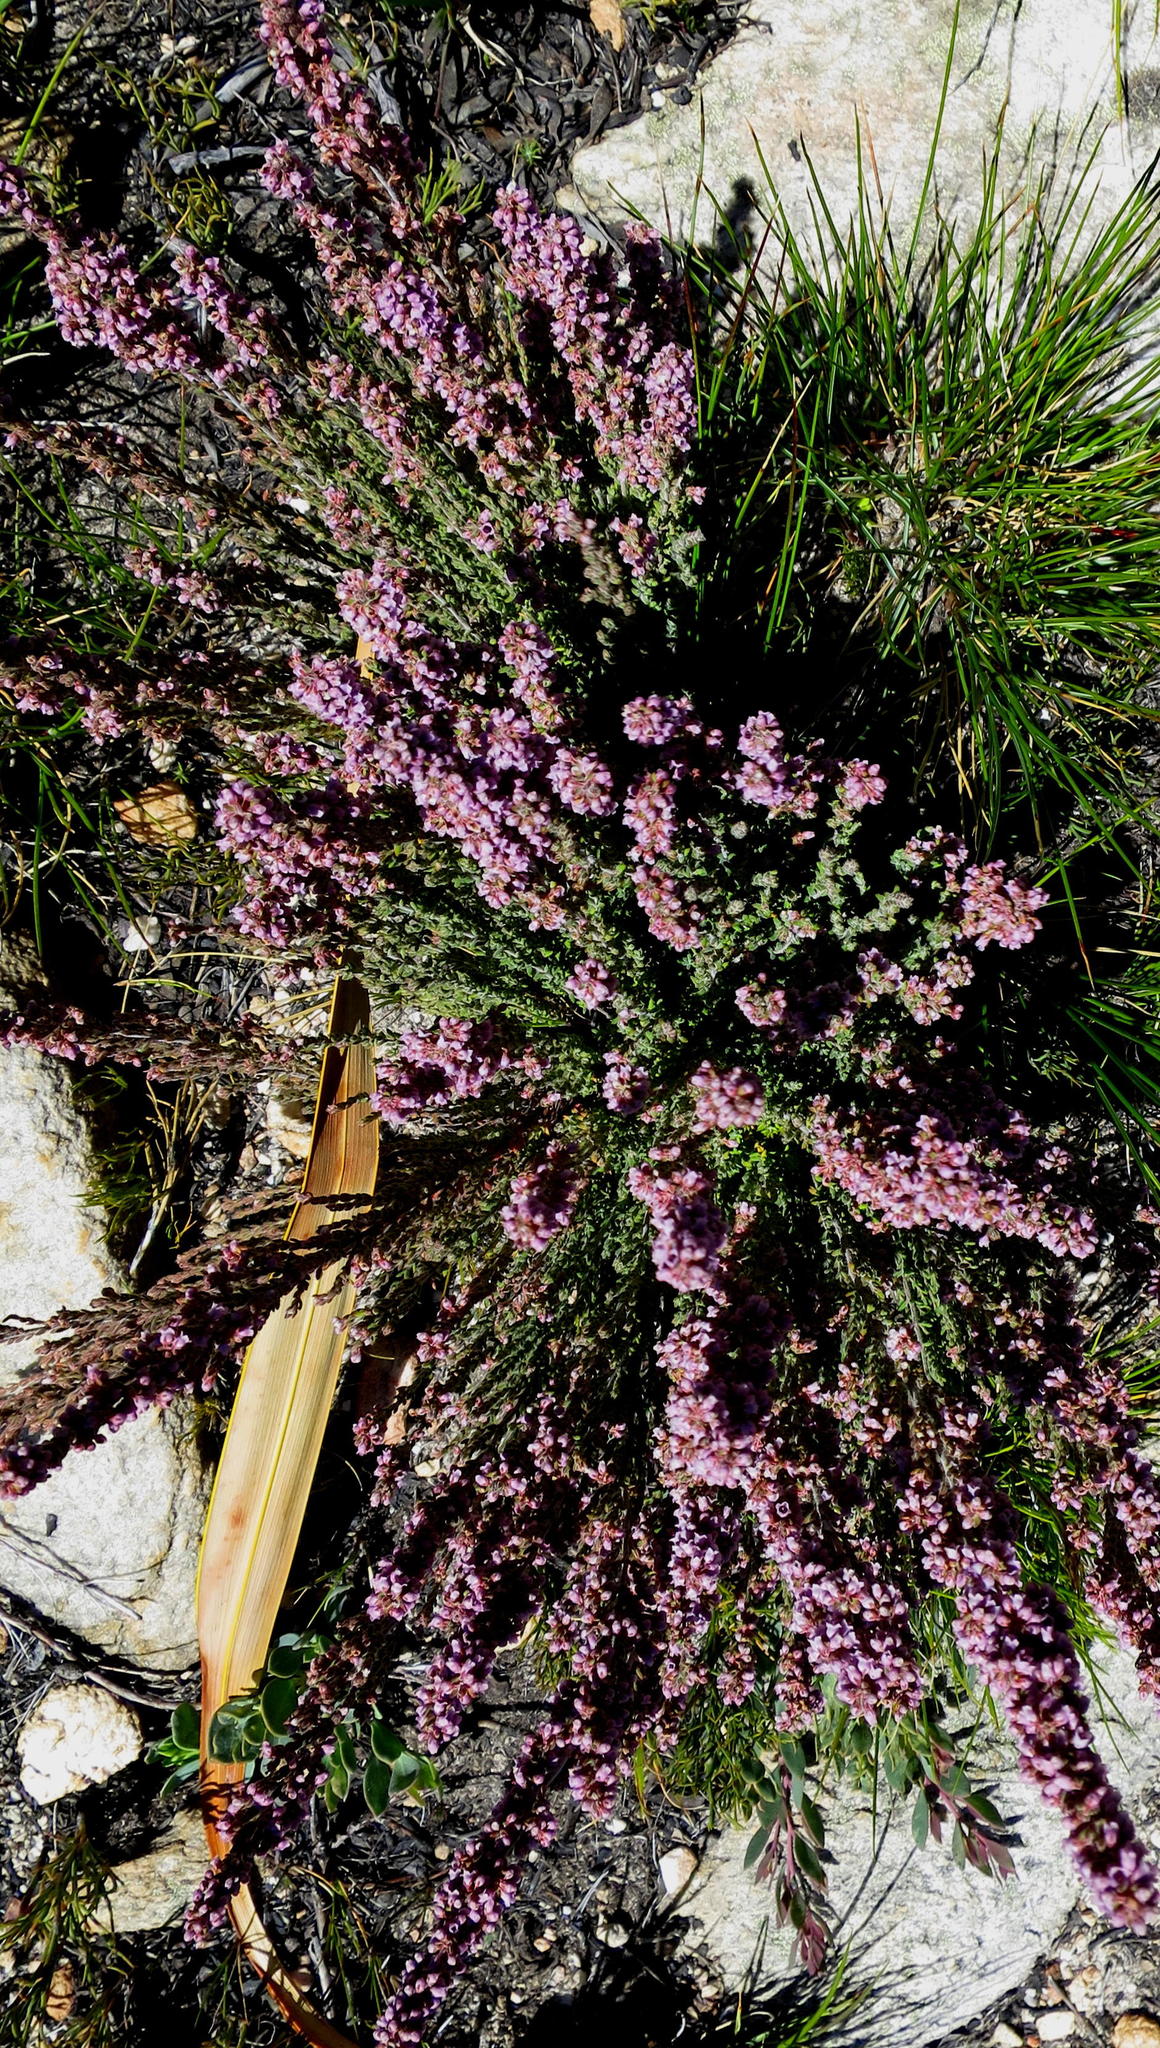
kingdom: Plantae
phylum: Tracheophyta
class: Magnoliopsida
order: Ericales
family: Ericaceae
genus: Erica
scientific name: Erica glandulipila
